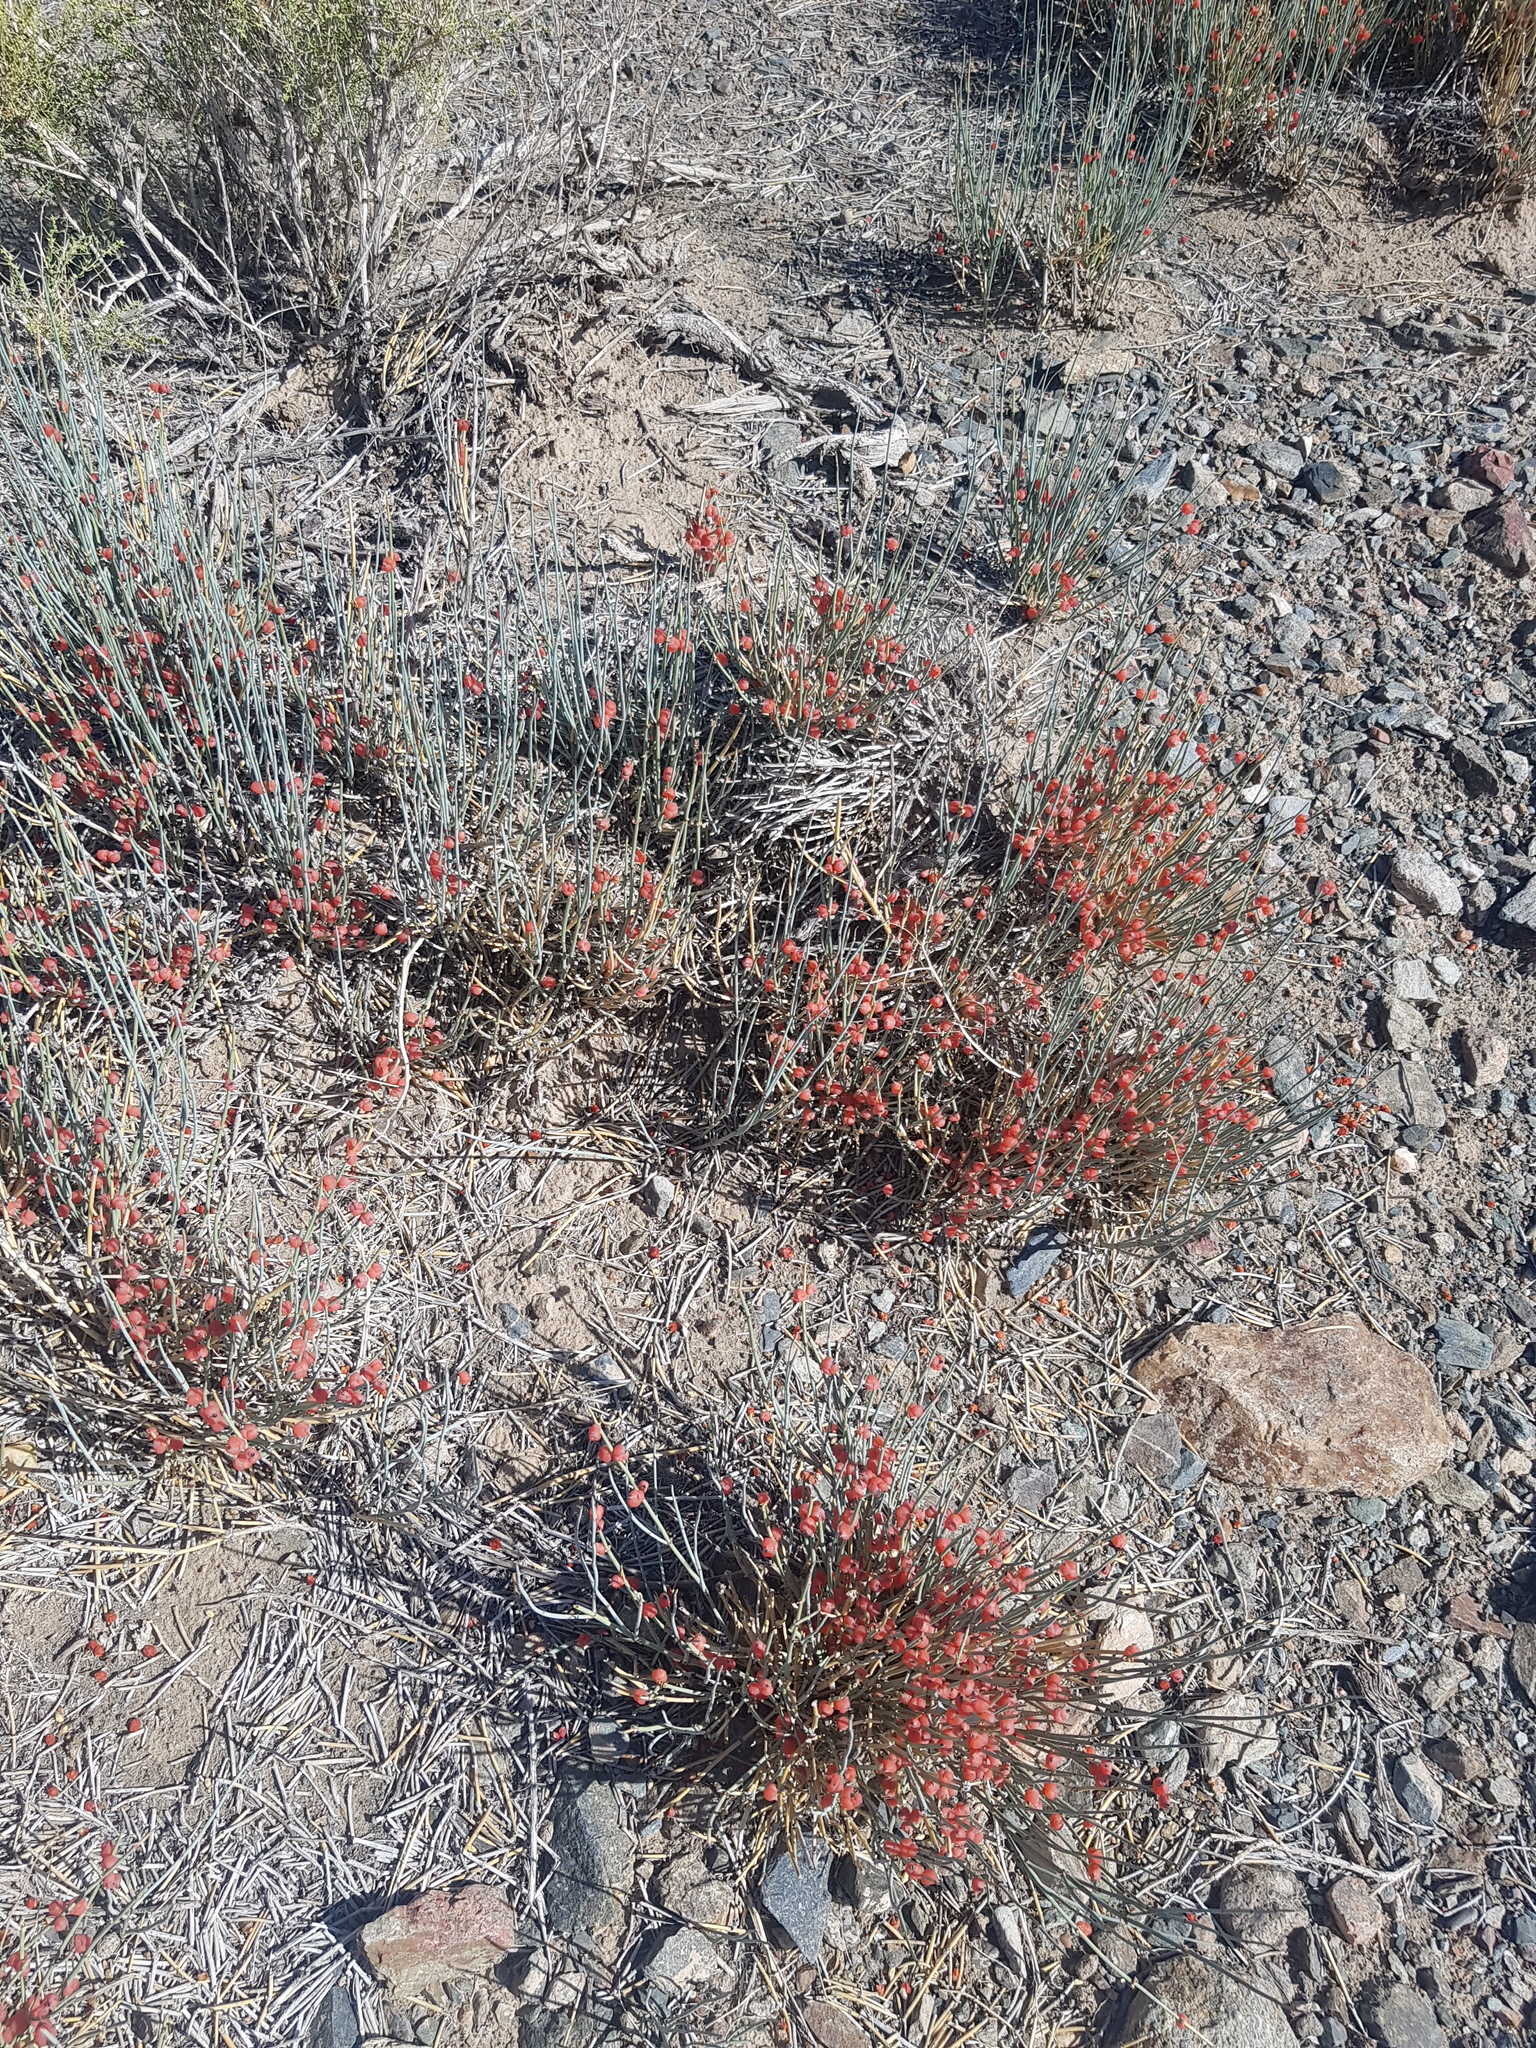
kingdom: Plantae
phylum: Tracheophyta
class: Gnetopsida
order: Ephedrales
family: Ephedraceae
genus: Ephedra
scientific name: Ephedra equisetina
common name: Mongolian ephedra
